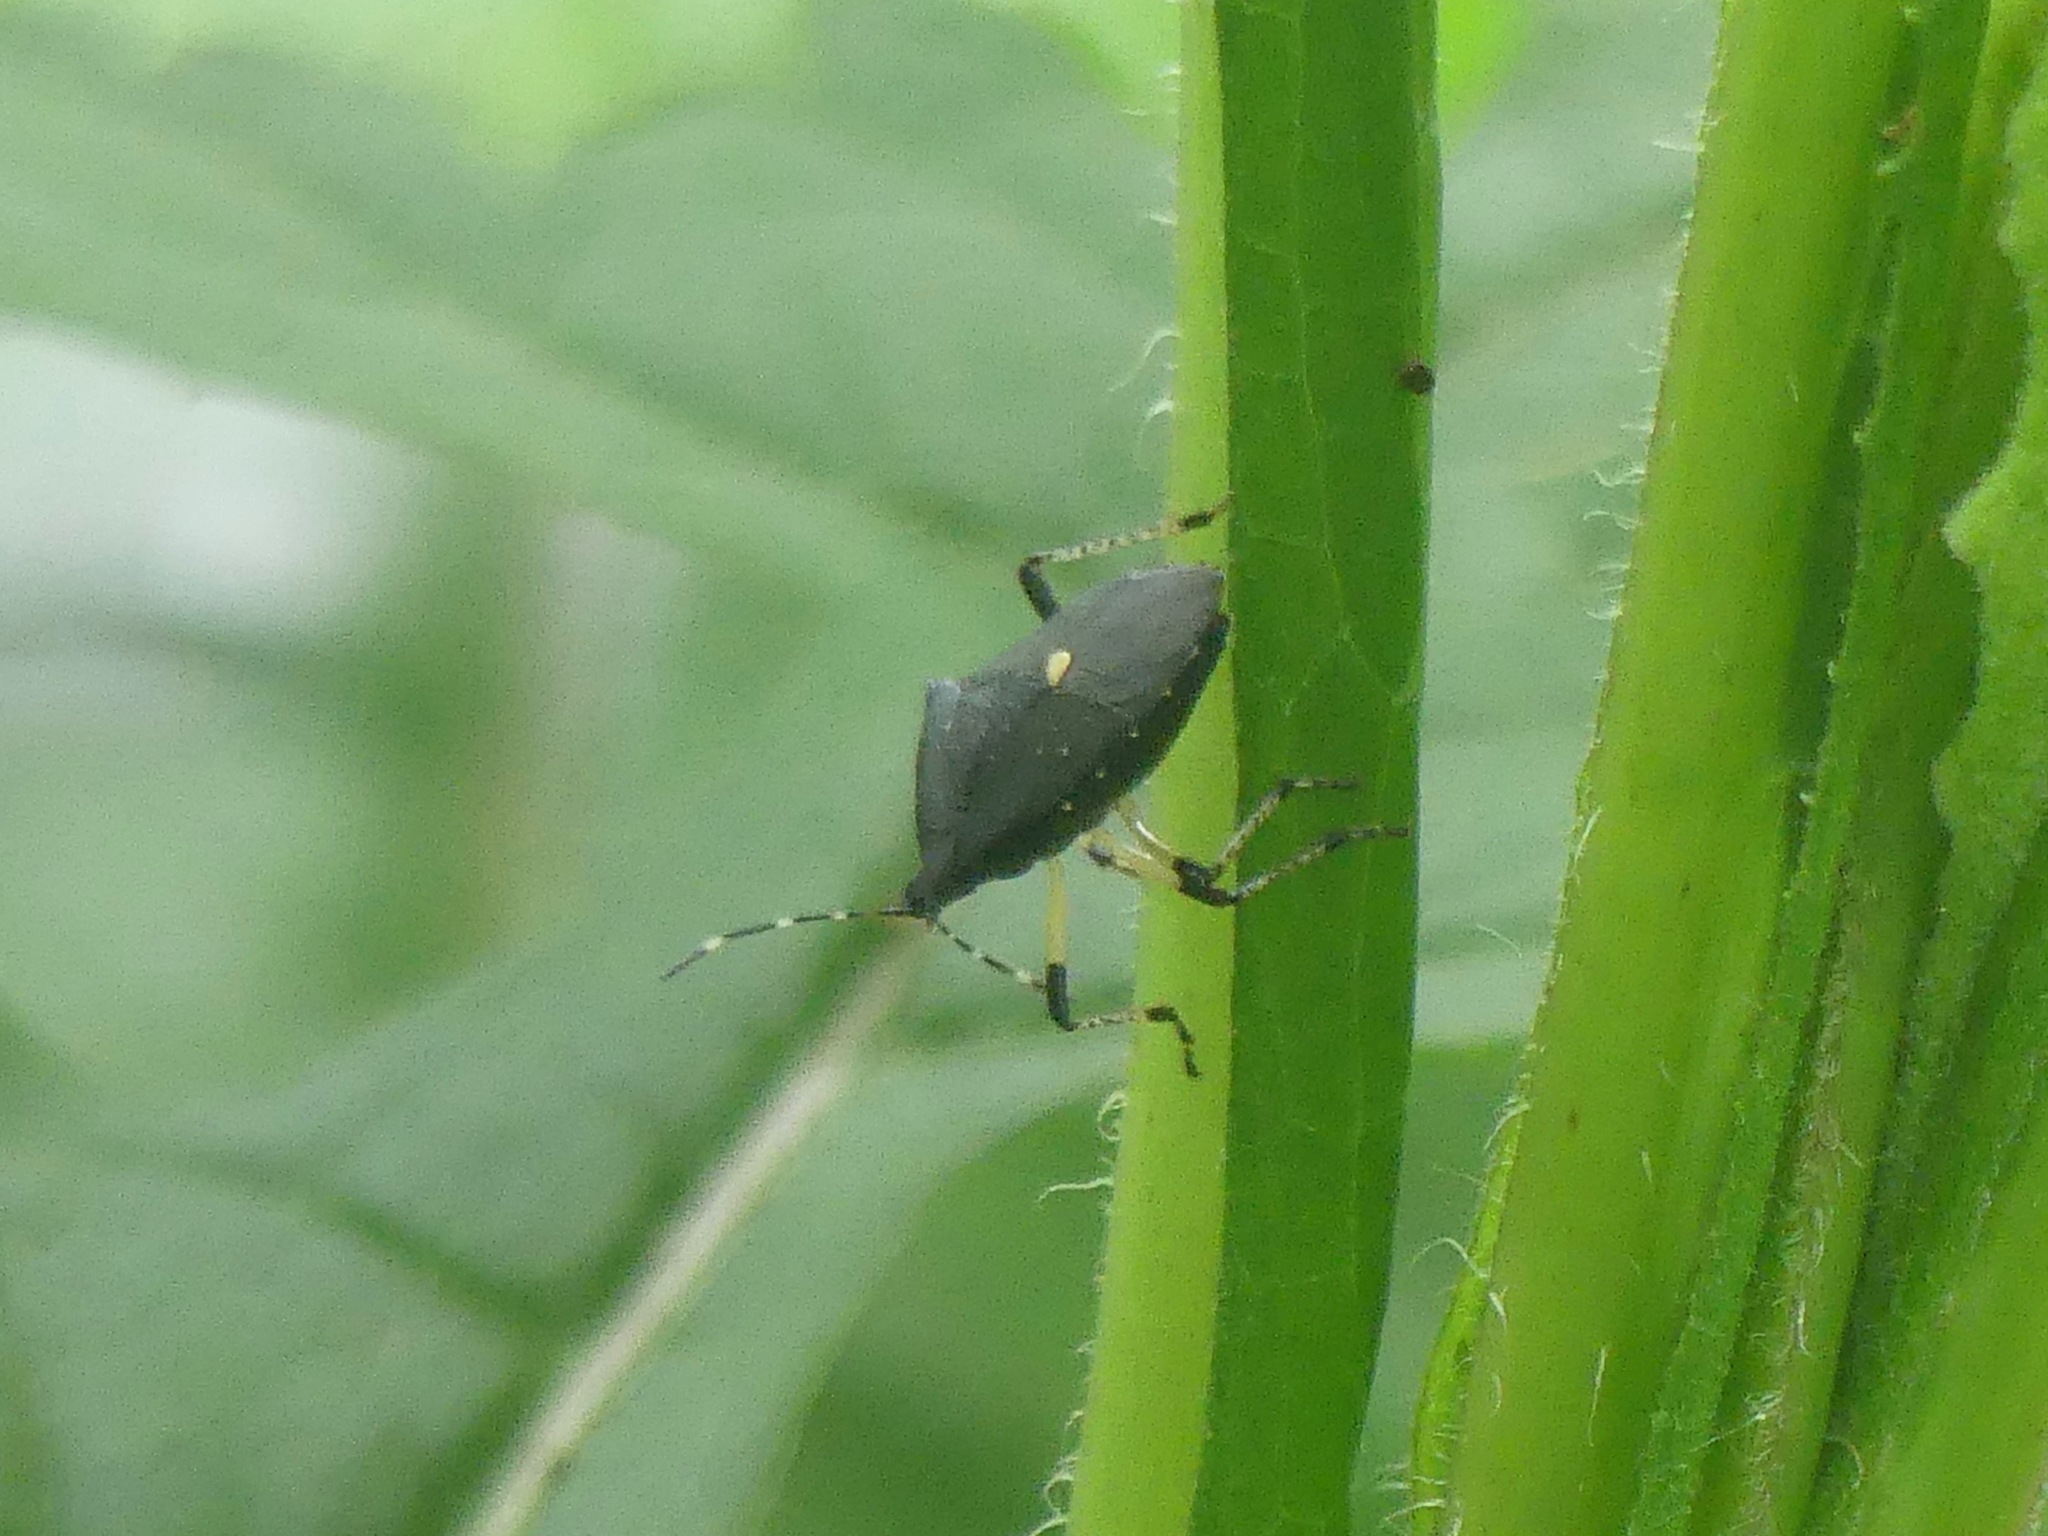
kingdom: Animalia
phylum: Arthropoda
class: Insecta
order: Hemiptera
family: Pentatomidae
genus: Proxys
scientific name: Proxys punctulatus
